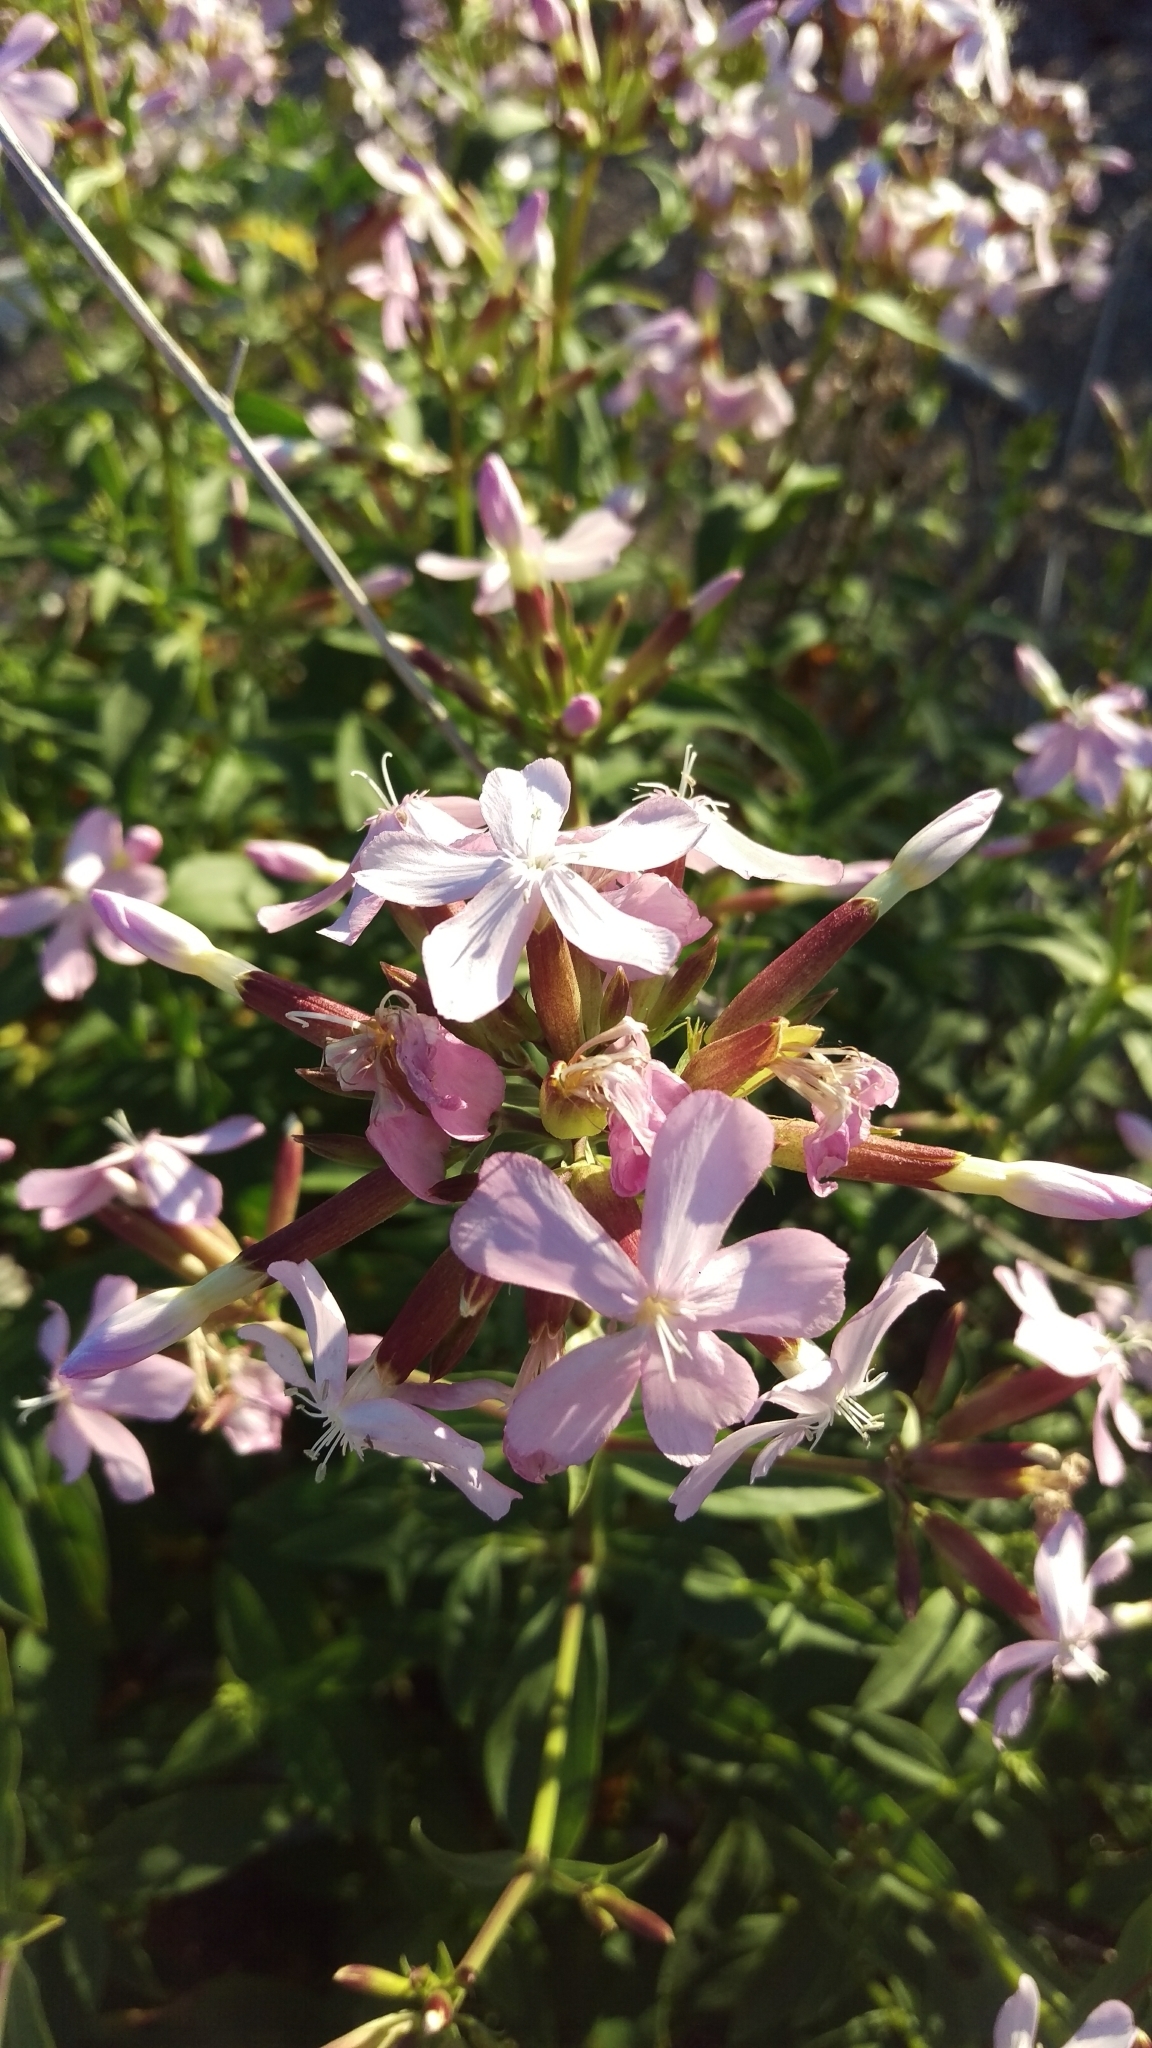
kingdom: Plantae
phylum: Tracheophyta
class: Magnoliopsida
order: Caryophyllales
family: Caryophyllaceae
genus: Saponaria
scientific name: Saponaria officinalis
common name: Soapwort
